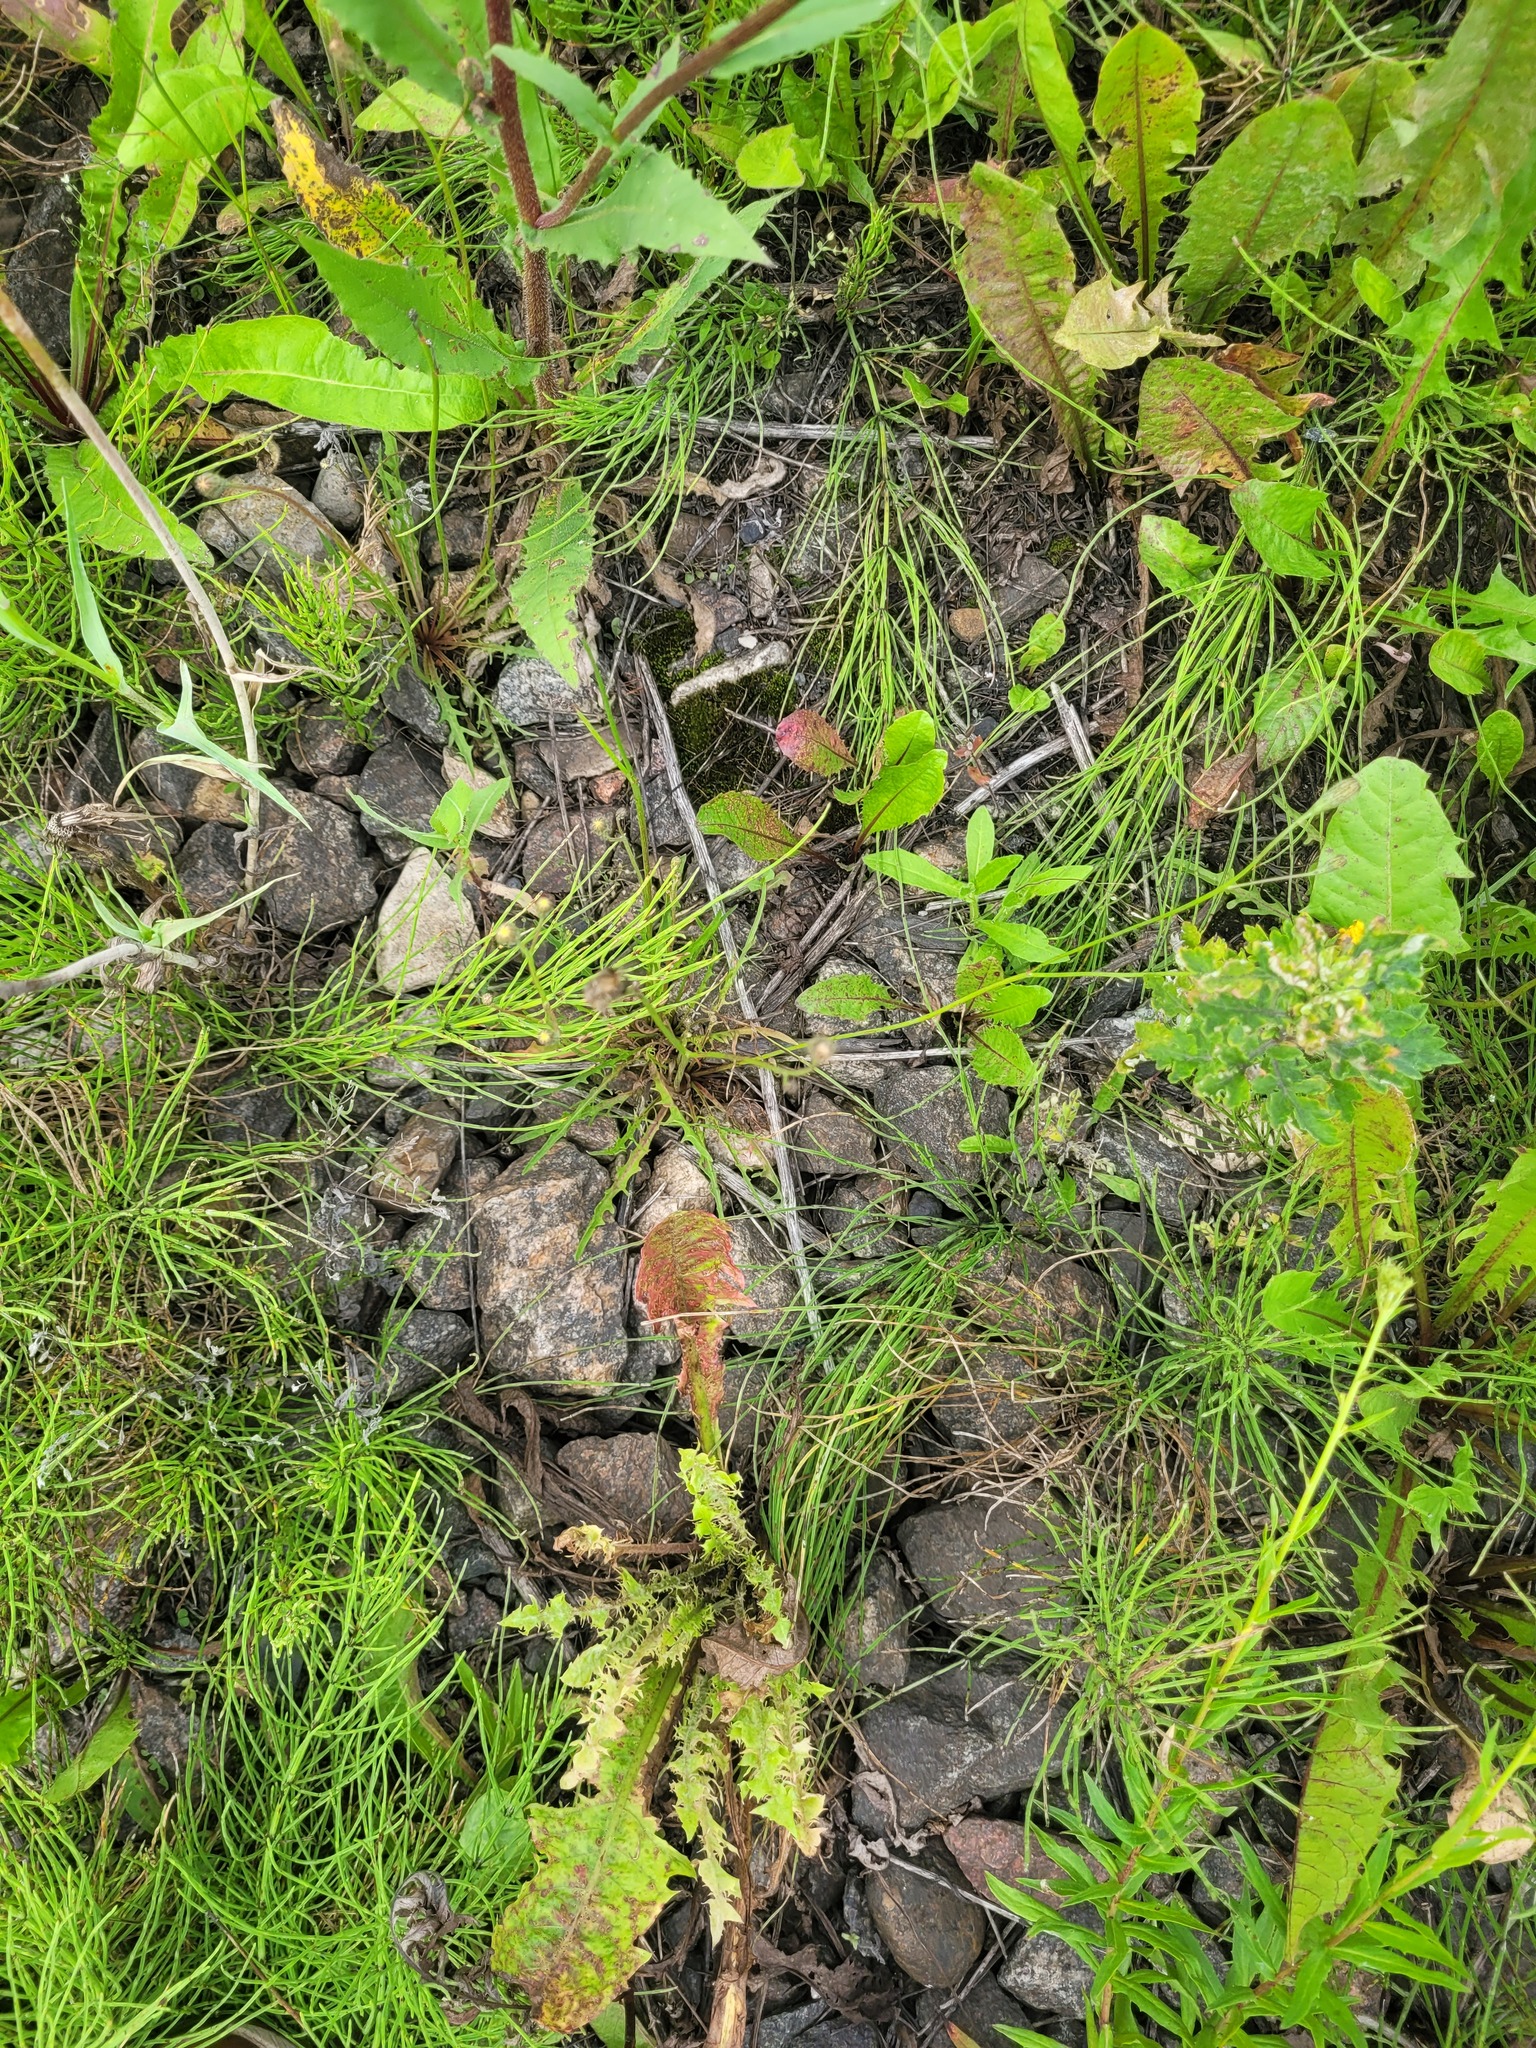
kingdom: Plantae
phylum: Tracheophyta
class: Magnoliopsida
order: Asterales
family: Asteraceae
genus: Scorzoneroides
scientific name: Scorzoneroides autumnalis
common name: Autumn hawkbit
